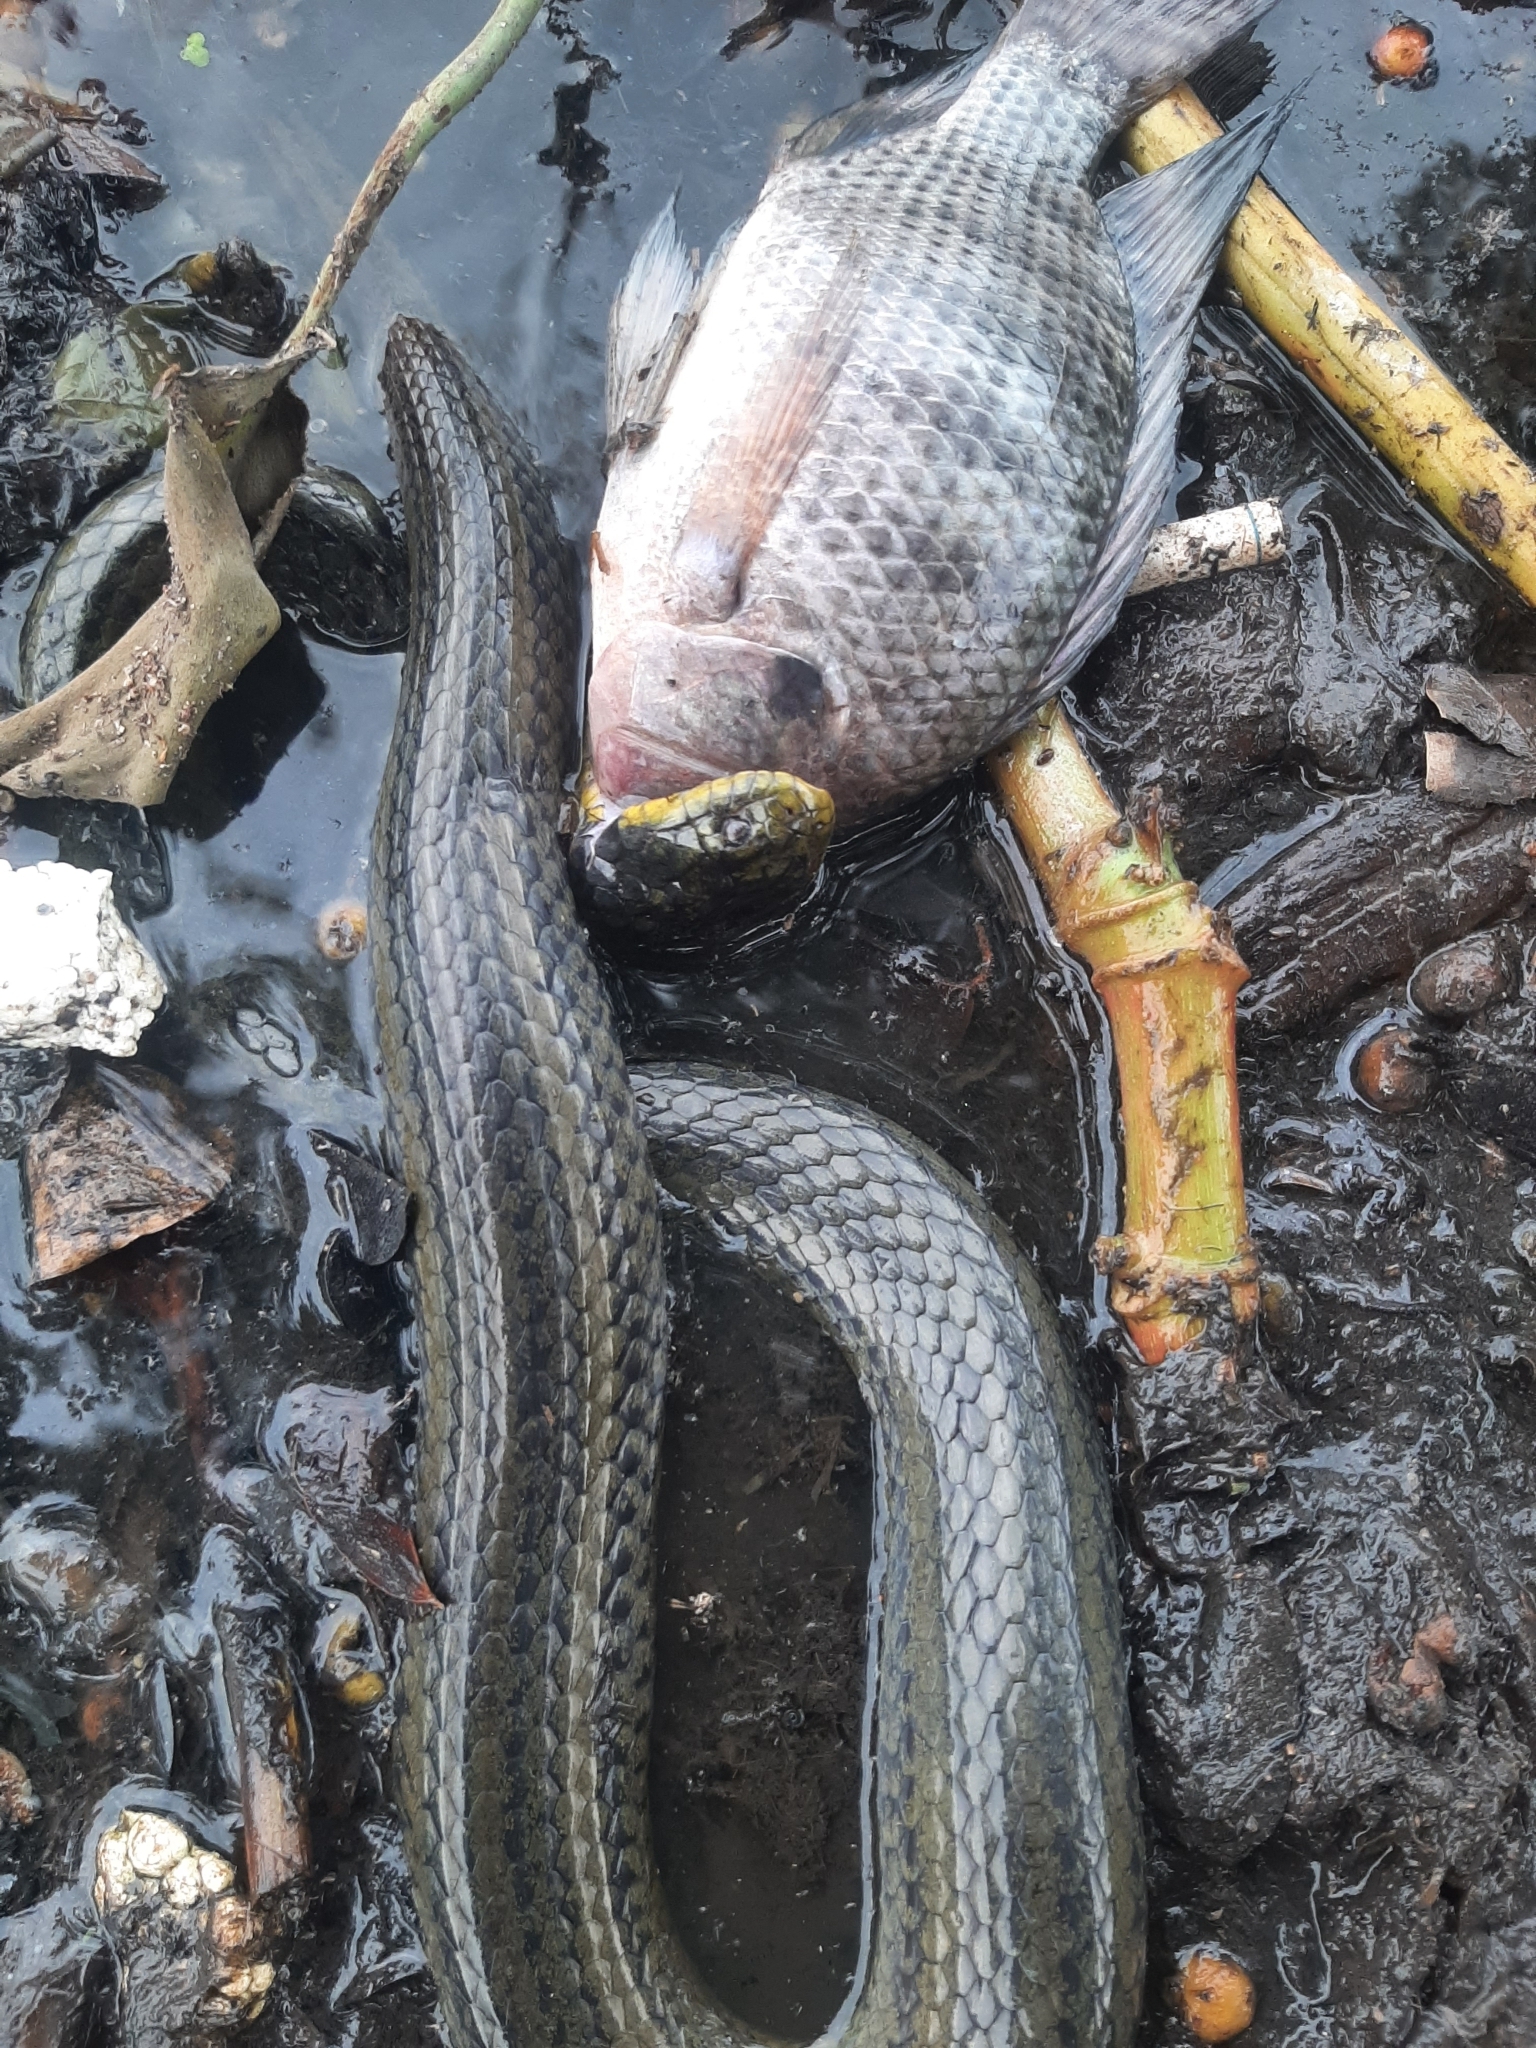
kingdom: Animalia
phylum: Chordata
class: Squamata
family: Colubridae
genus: Helicops
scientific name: Helicops carinicaudus
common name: Wied's keelback
